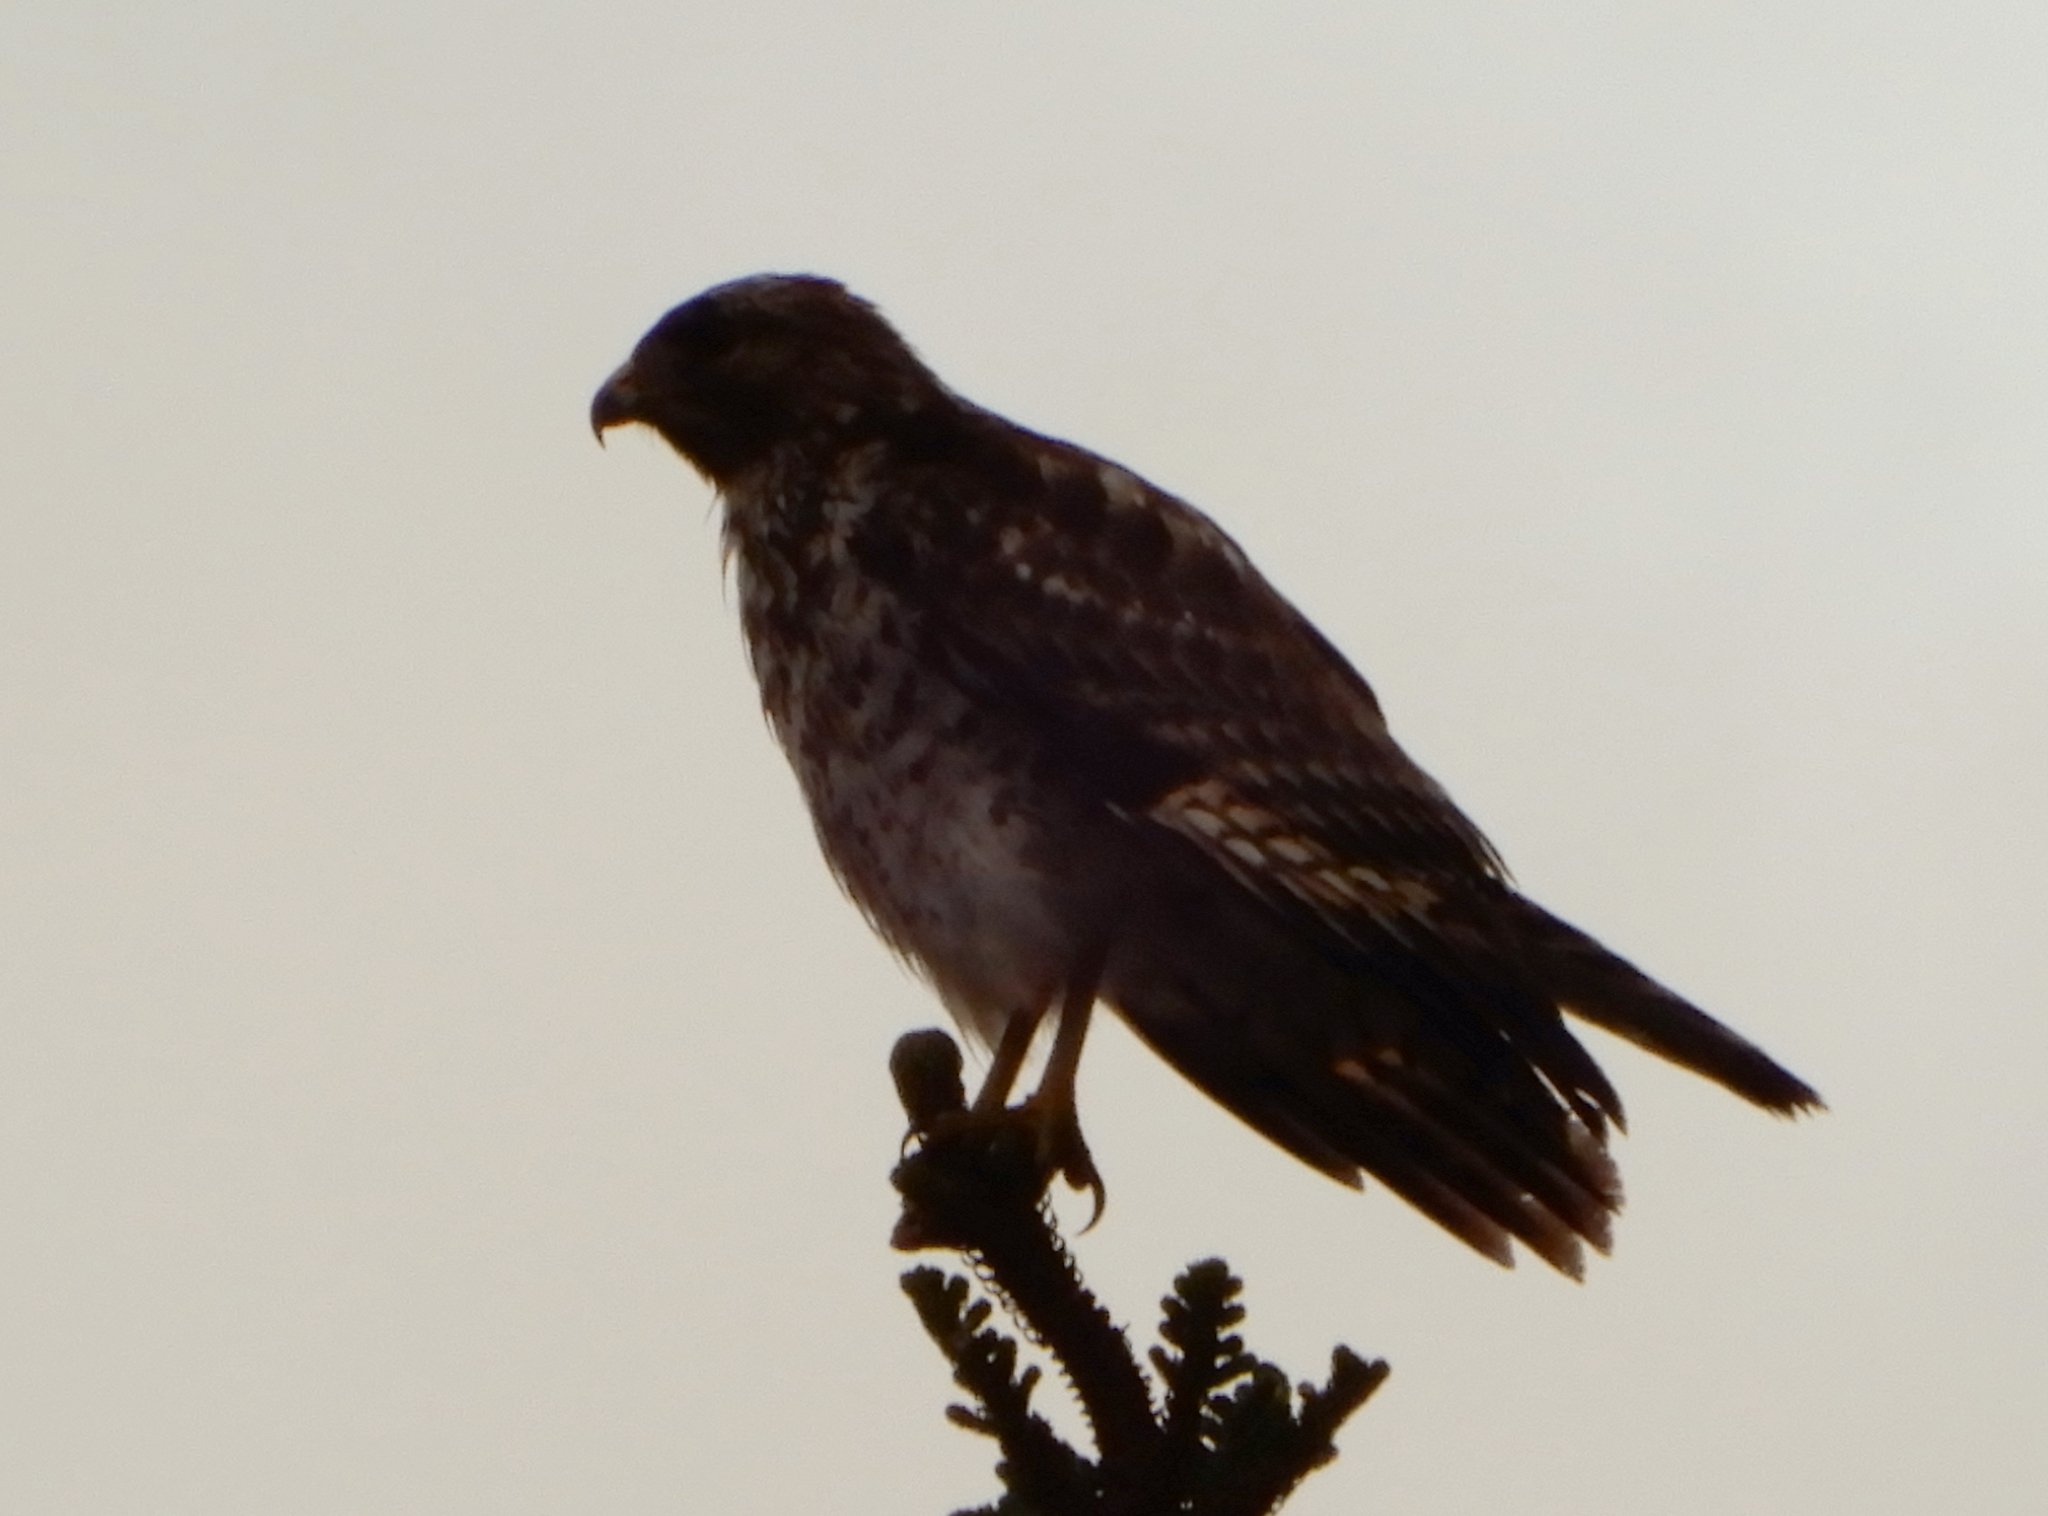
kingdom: Animalia
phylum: Chordata
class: Aves
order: Accipitriformes
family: Accipitridae
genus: Buteo
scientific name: Buteo lineatus
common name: Red-shouldered hawk
